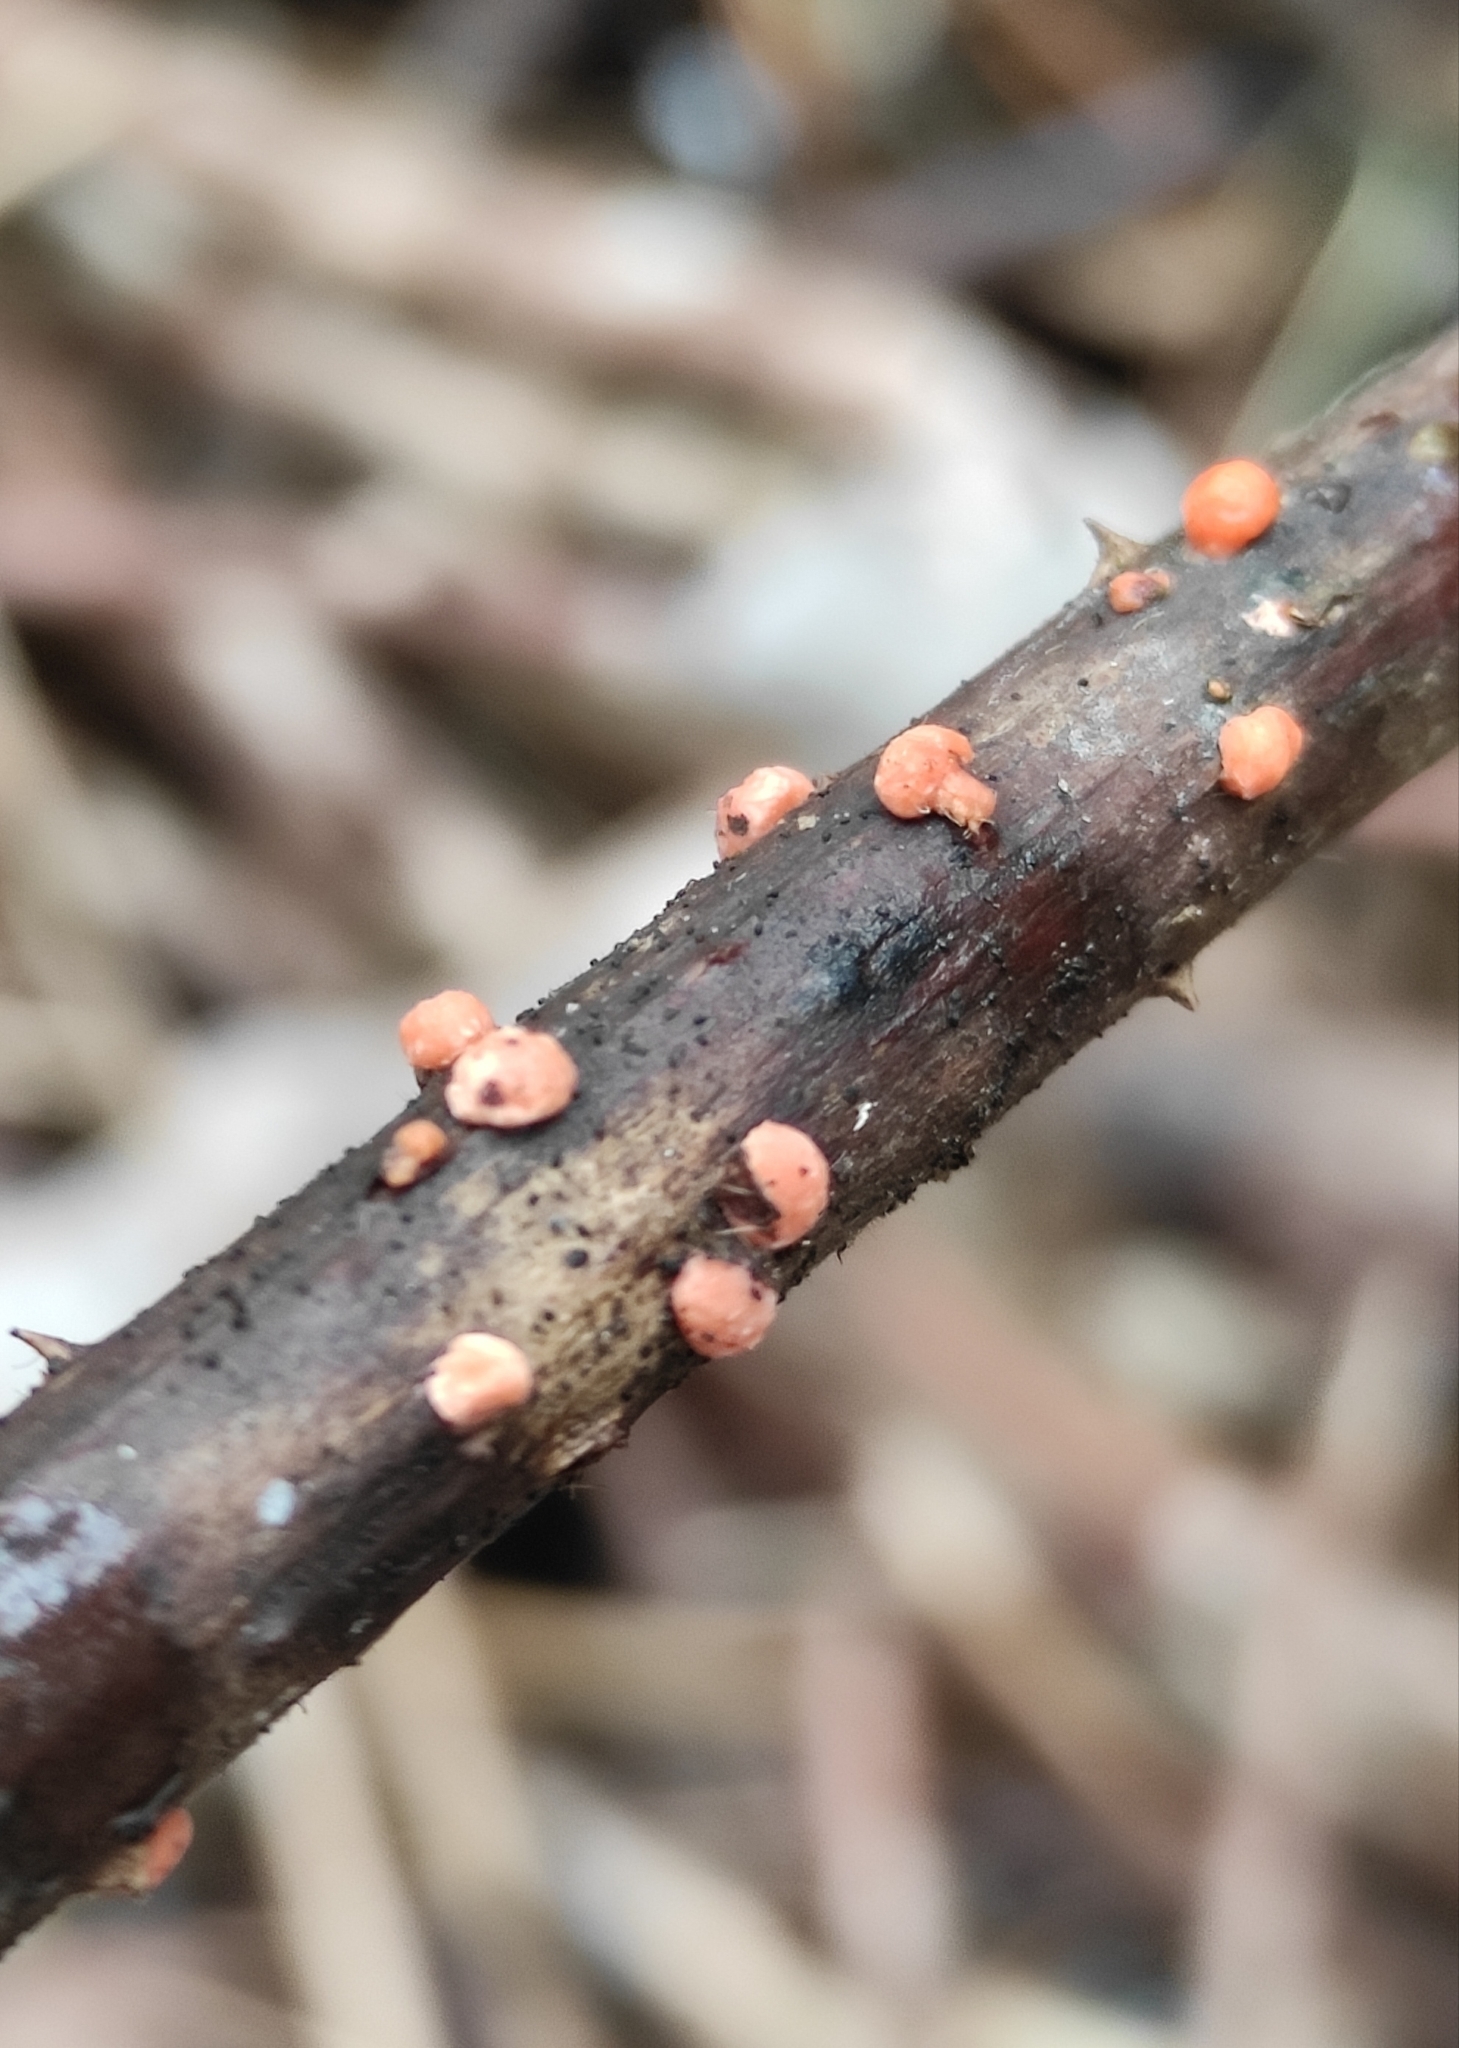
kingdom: Fungi
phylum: Ascomycota
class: Sordariomycetes
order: Hypocreales
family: Nectriaceae
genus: Nectria
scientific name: Nectria cinnabarina
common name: Coral spot
